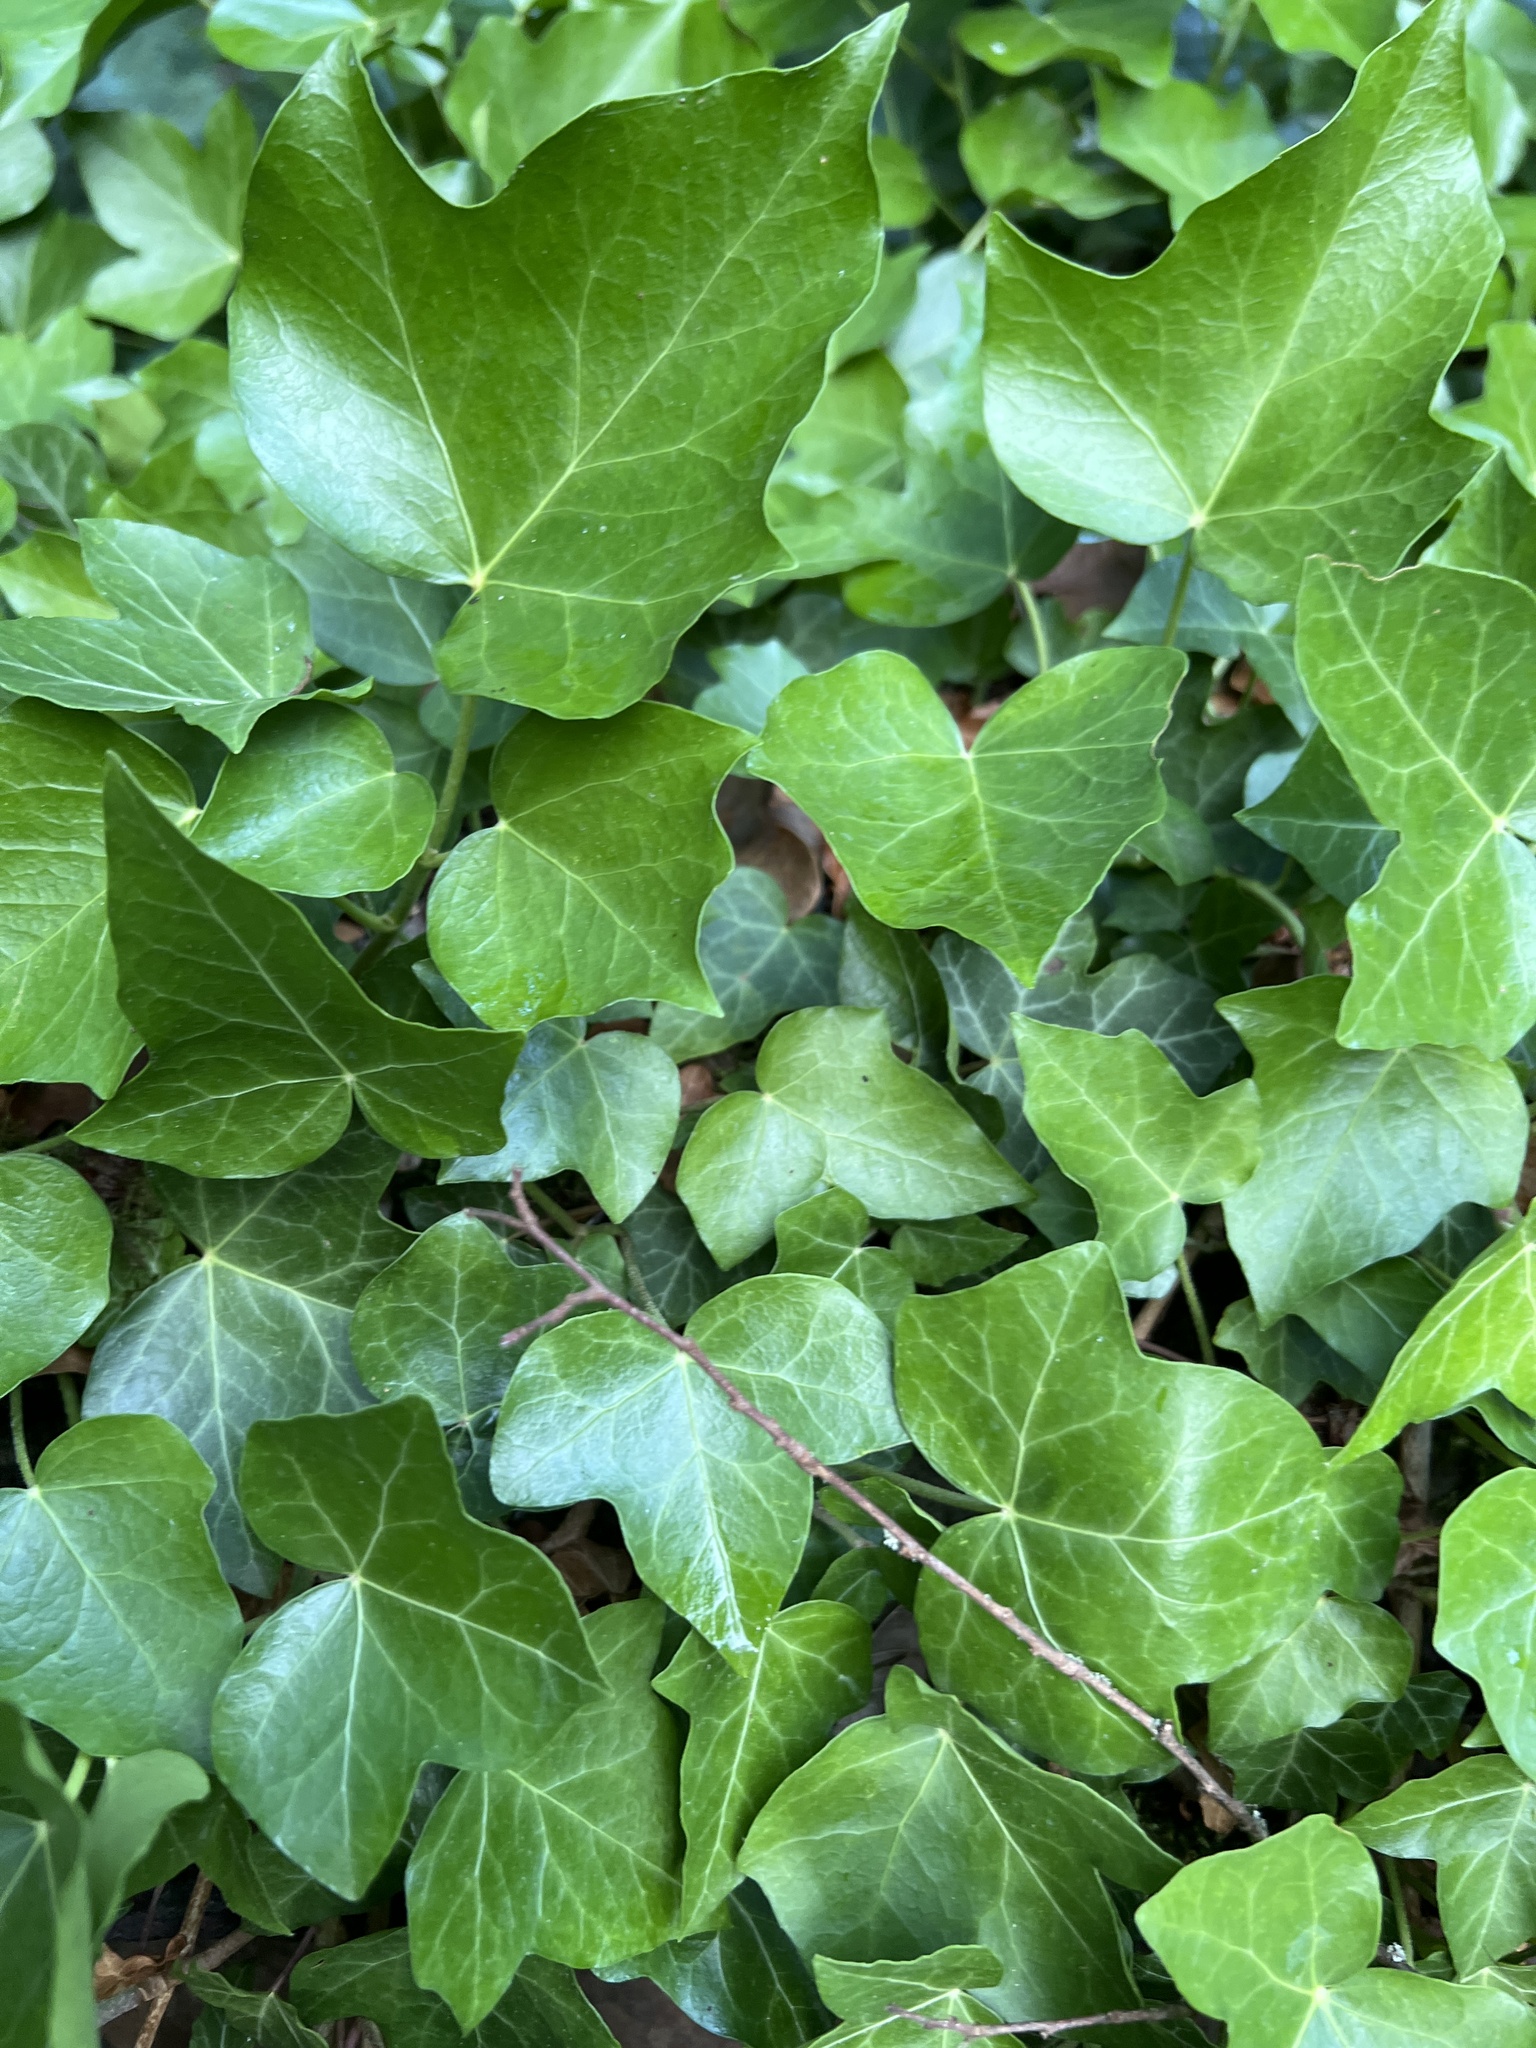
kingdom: Plantae
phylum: Tracheophyta
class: Magnoliopsida
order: Apiales
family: Araliaceae
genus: Hedera
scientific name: Hedera helix
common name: Ivy
